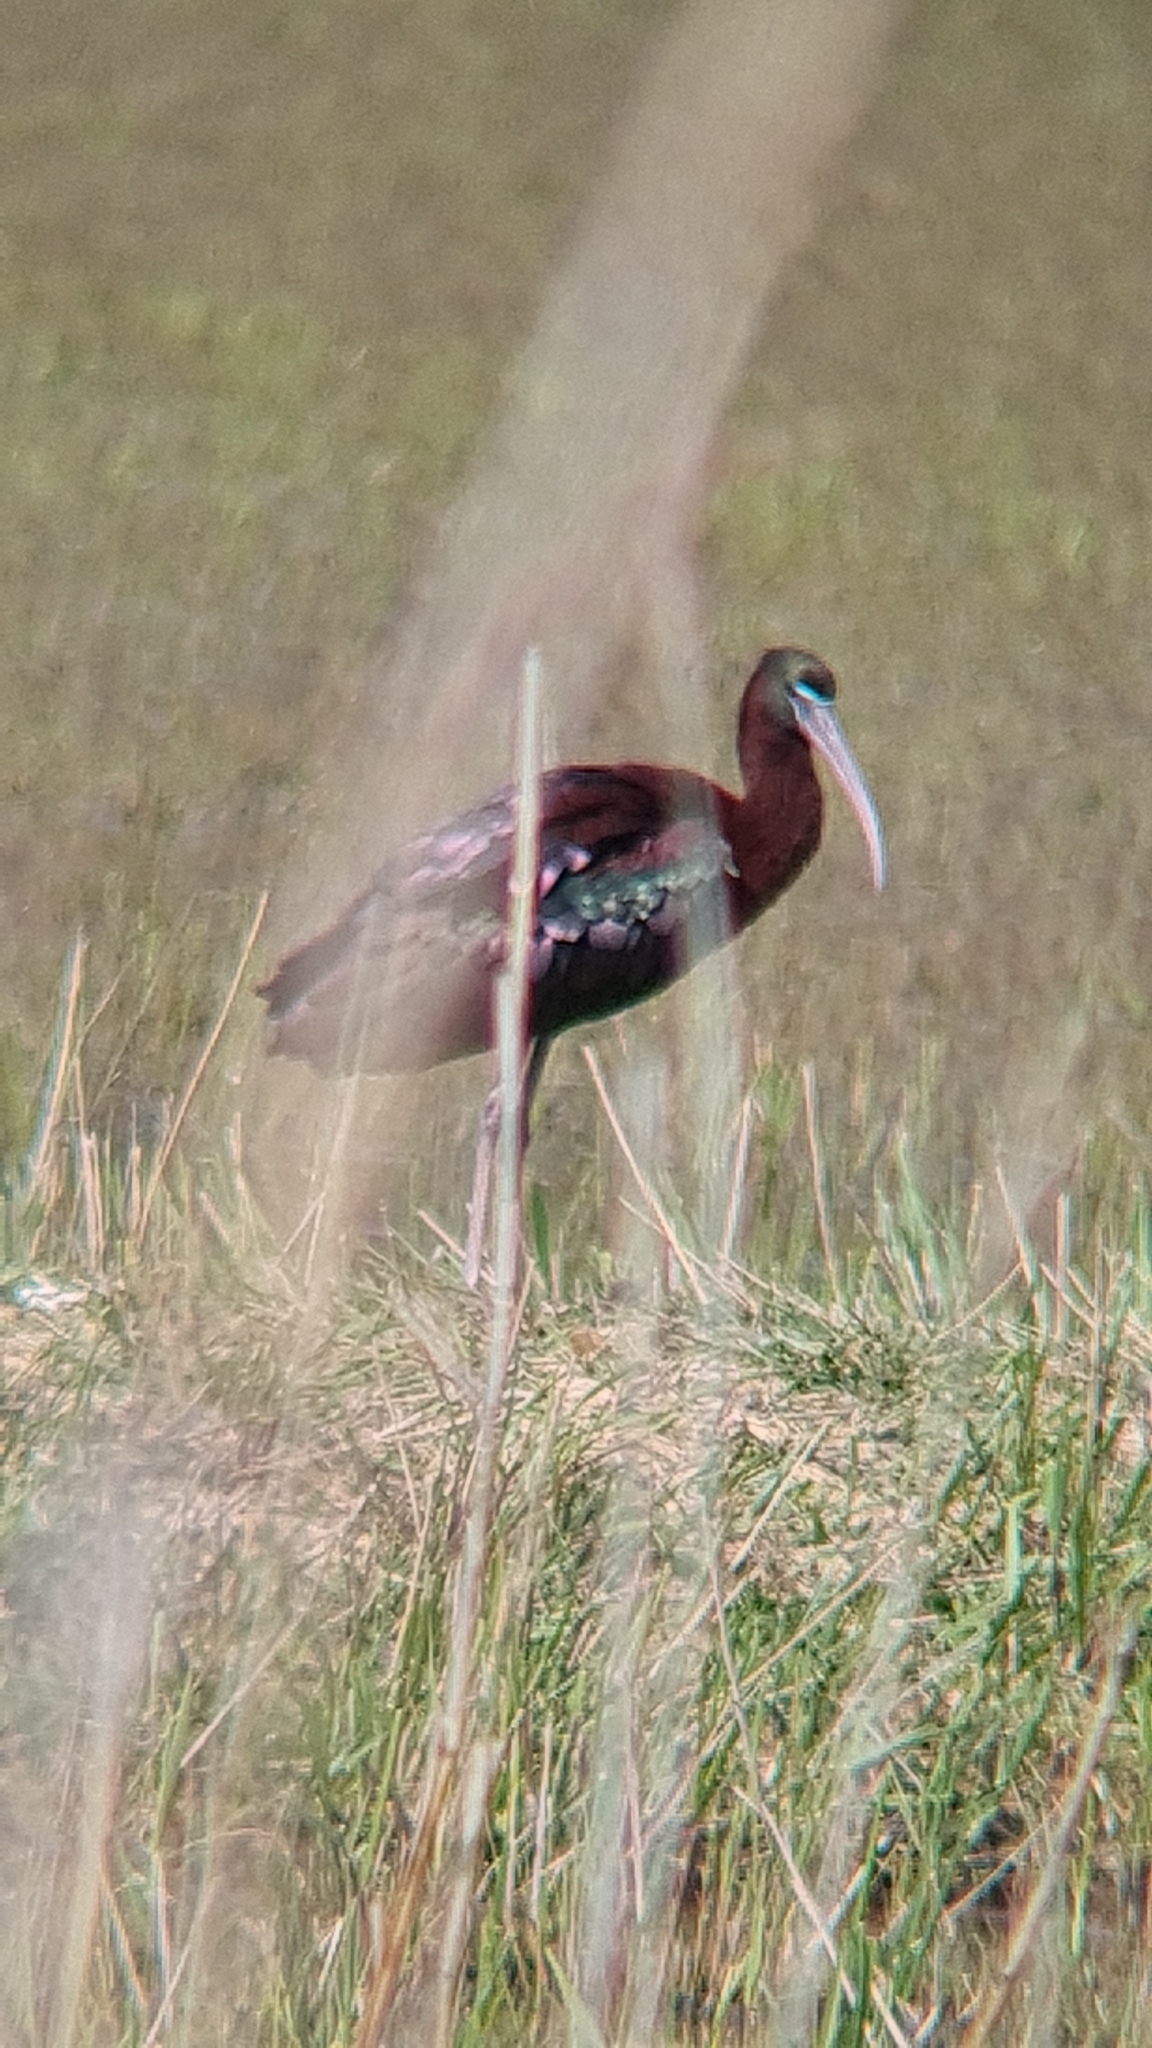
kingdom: Animalia
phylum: Chordata
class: Aves
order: Pelecaniformes
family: Threskiornithidae
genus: Plegadis
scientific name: Plegadis falcinellus
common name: Glossy ibis
